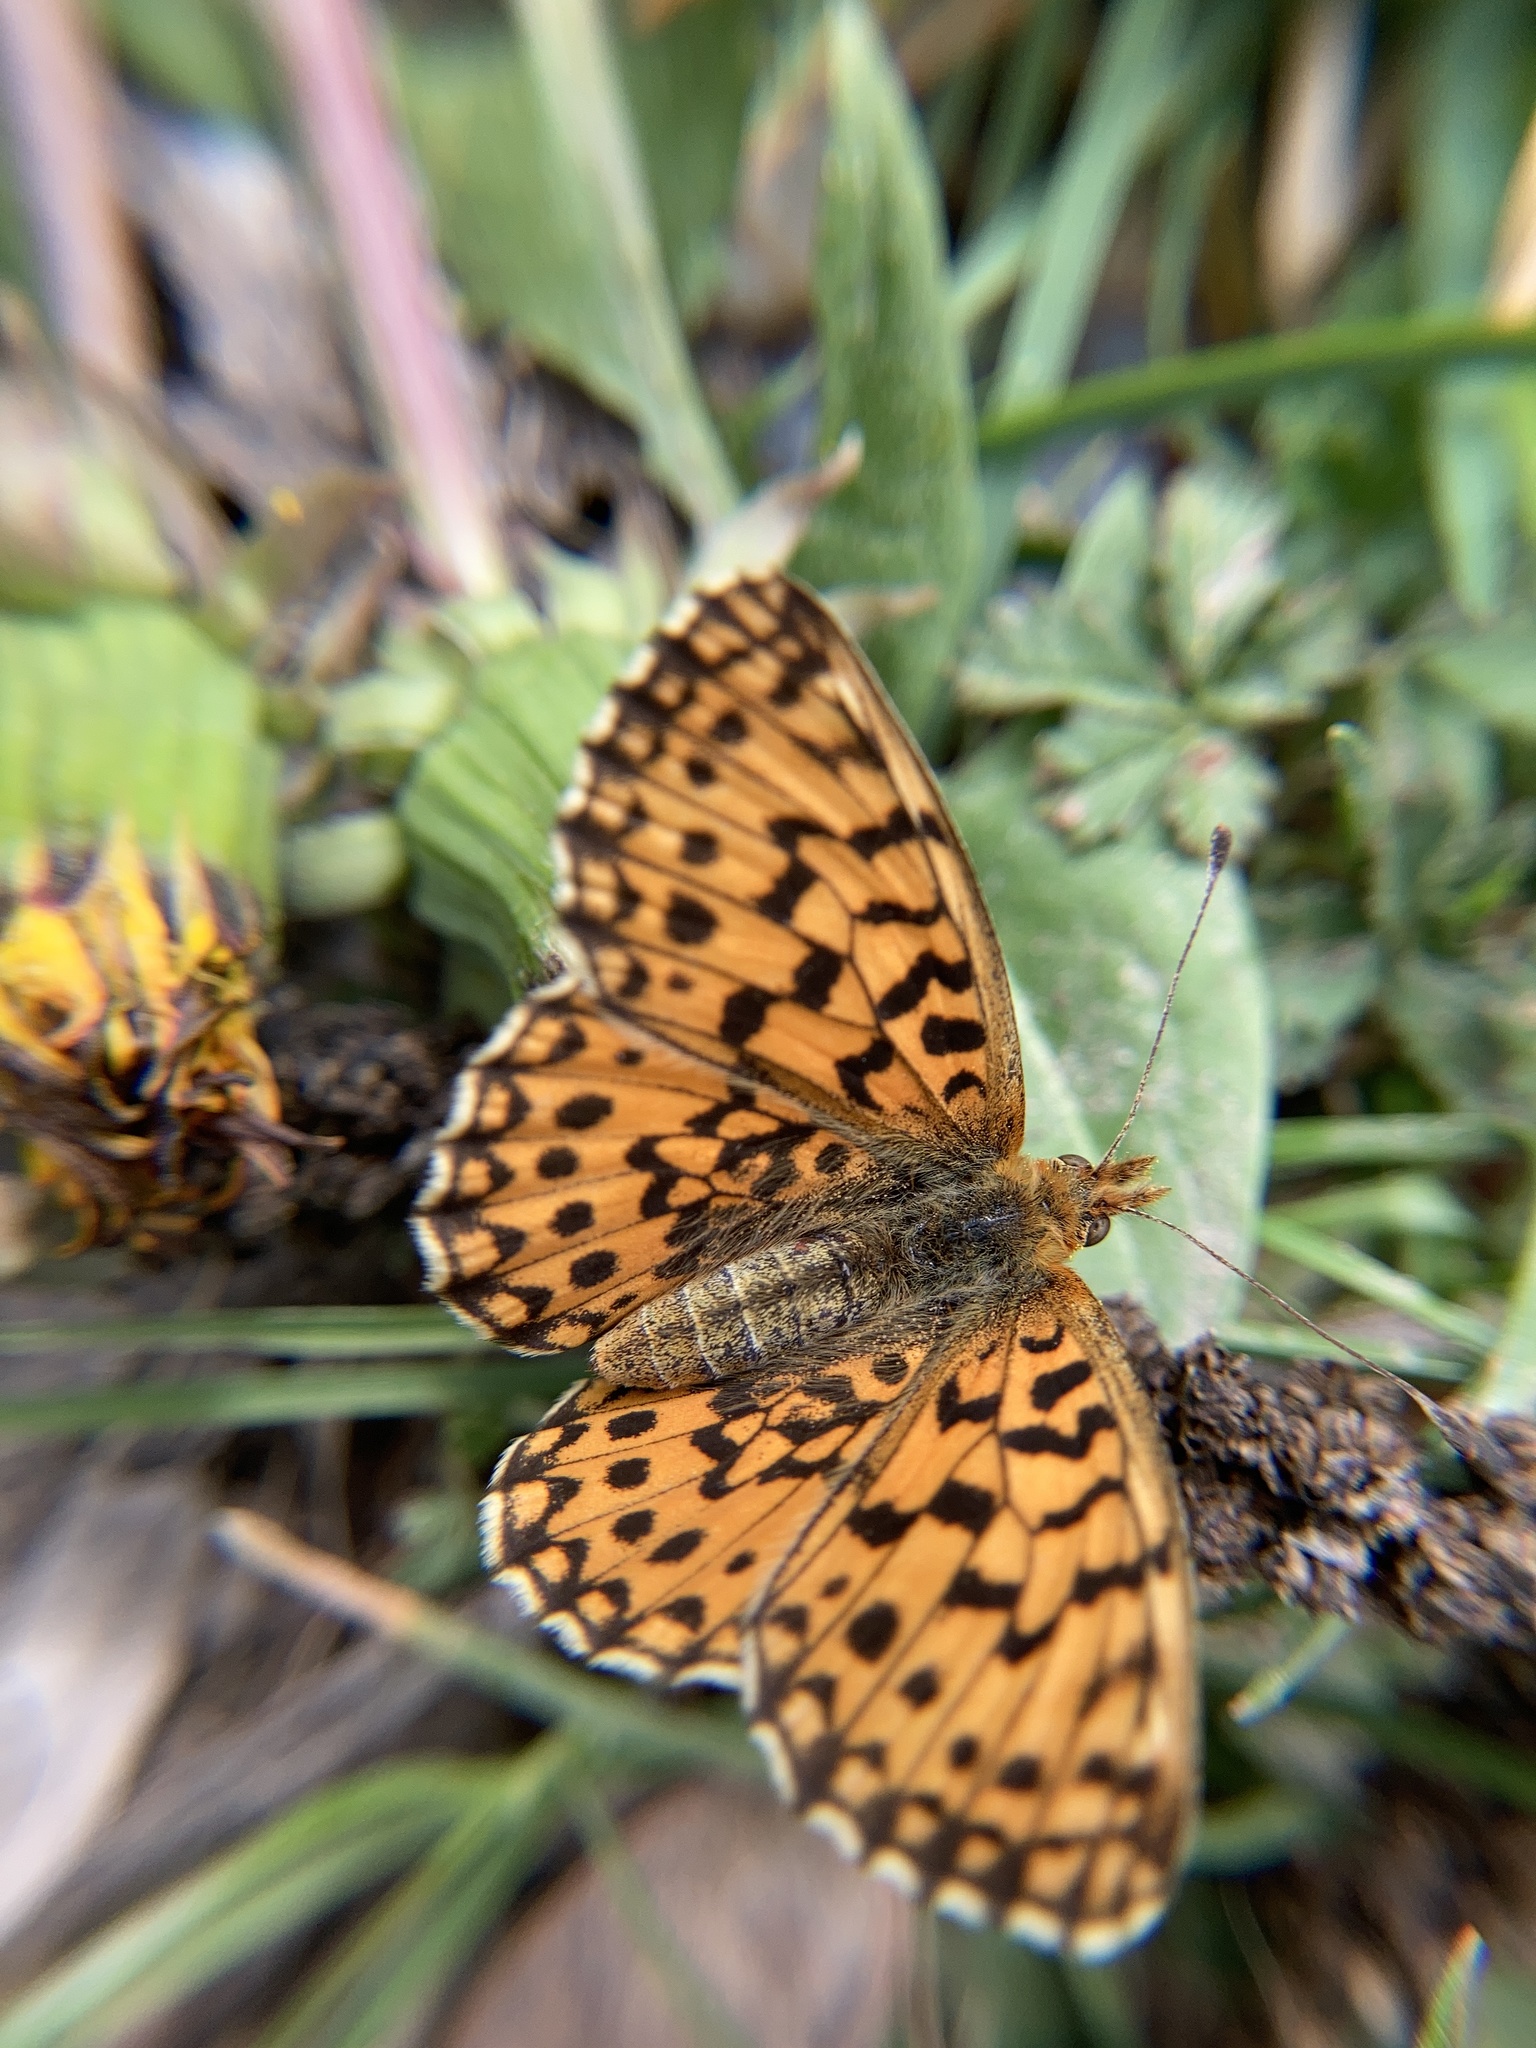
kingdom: Animalia
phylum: Arthropoda
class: Insecta
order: Lepidoptera
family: Nymphalidae
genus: Boloria
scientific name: Boloria dia
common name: Weaver's fritillary
